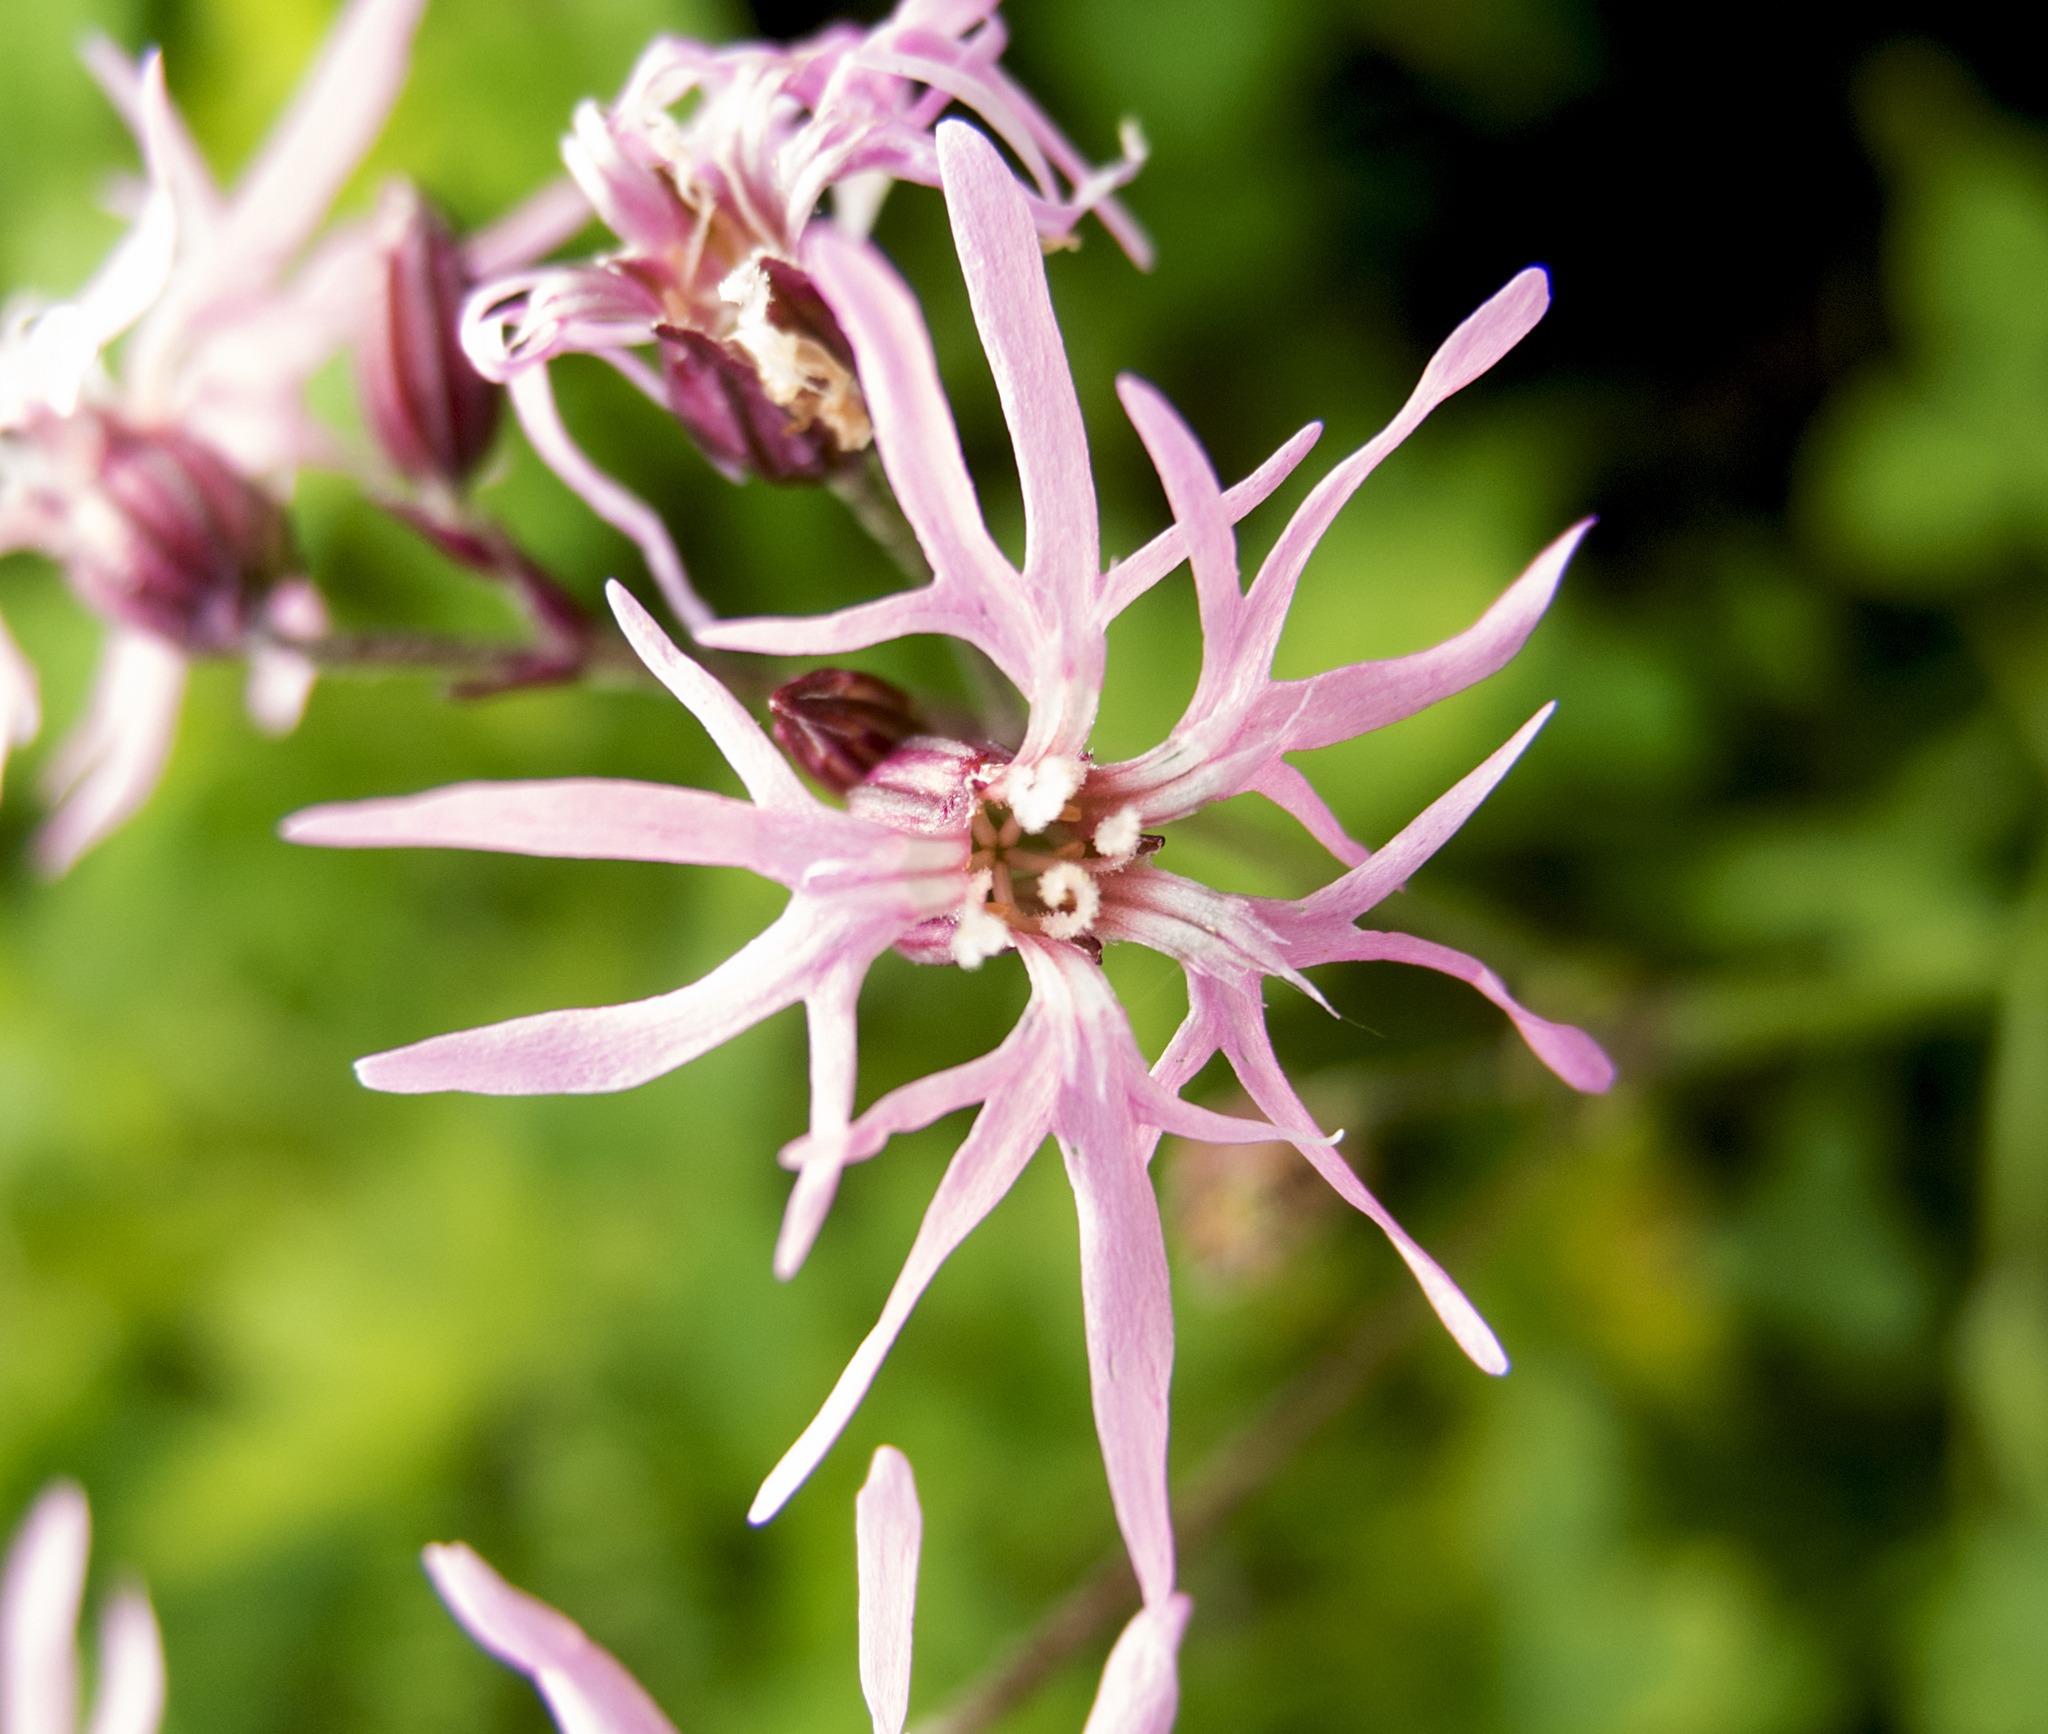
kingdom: Plantae
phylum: Tracheophyta
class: Magnoliopsida
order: Caryophyllales
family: Caryophyllaceae
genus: Silene
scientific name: Silene flos-cuculi
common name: Ragged-robin
